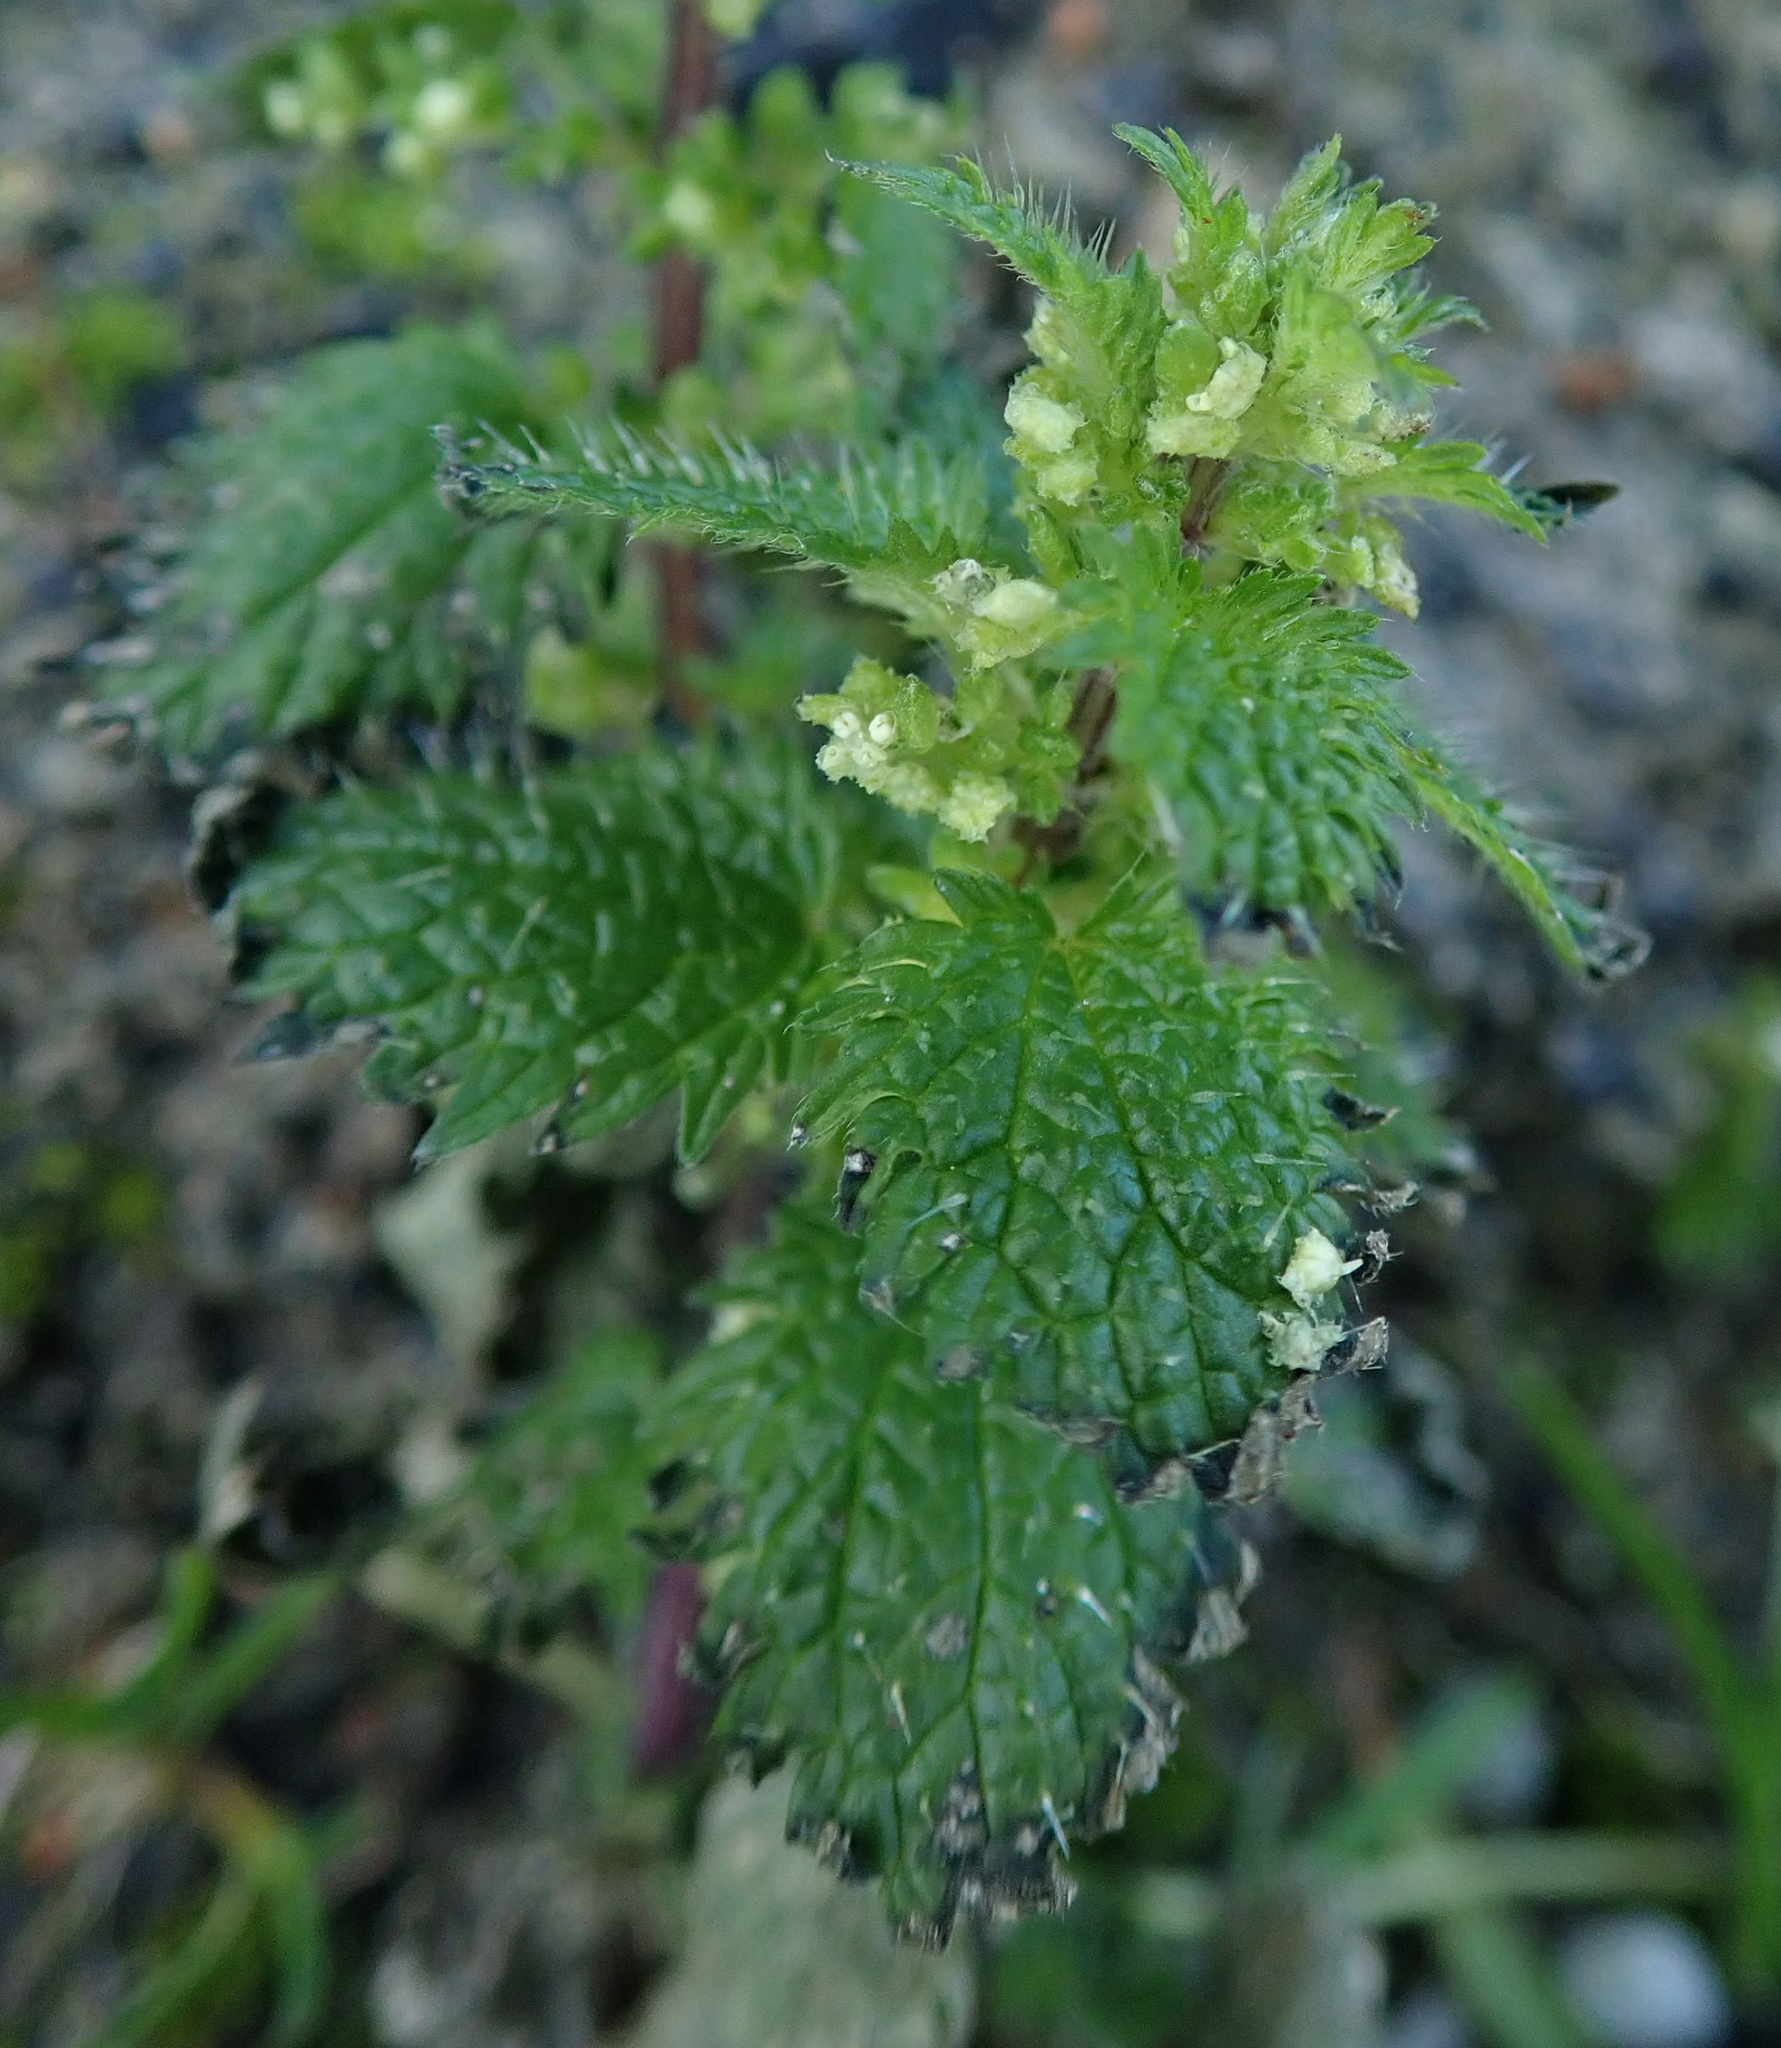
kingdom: Plantae
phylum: Tracheophyta
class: Magnoliopsida
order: Rosales
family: Urticaceae
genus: Urtica
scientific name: Urtica urens
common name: Dwarf nettle
